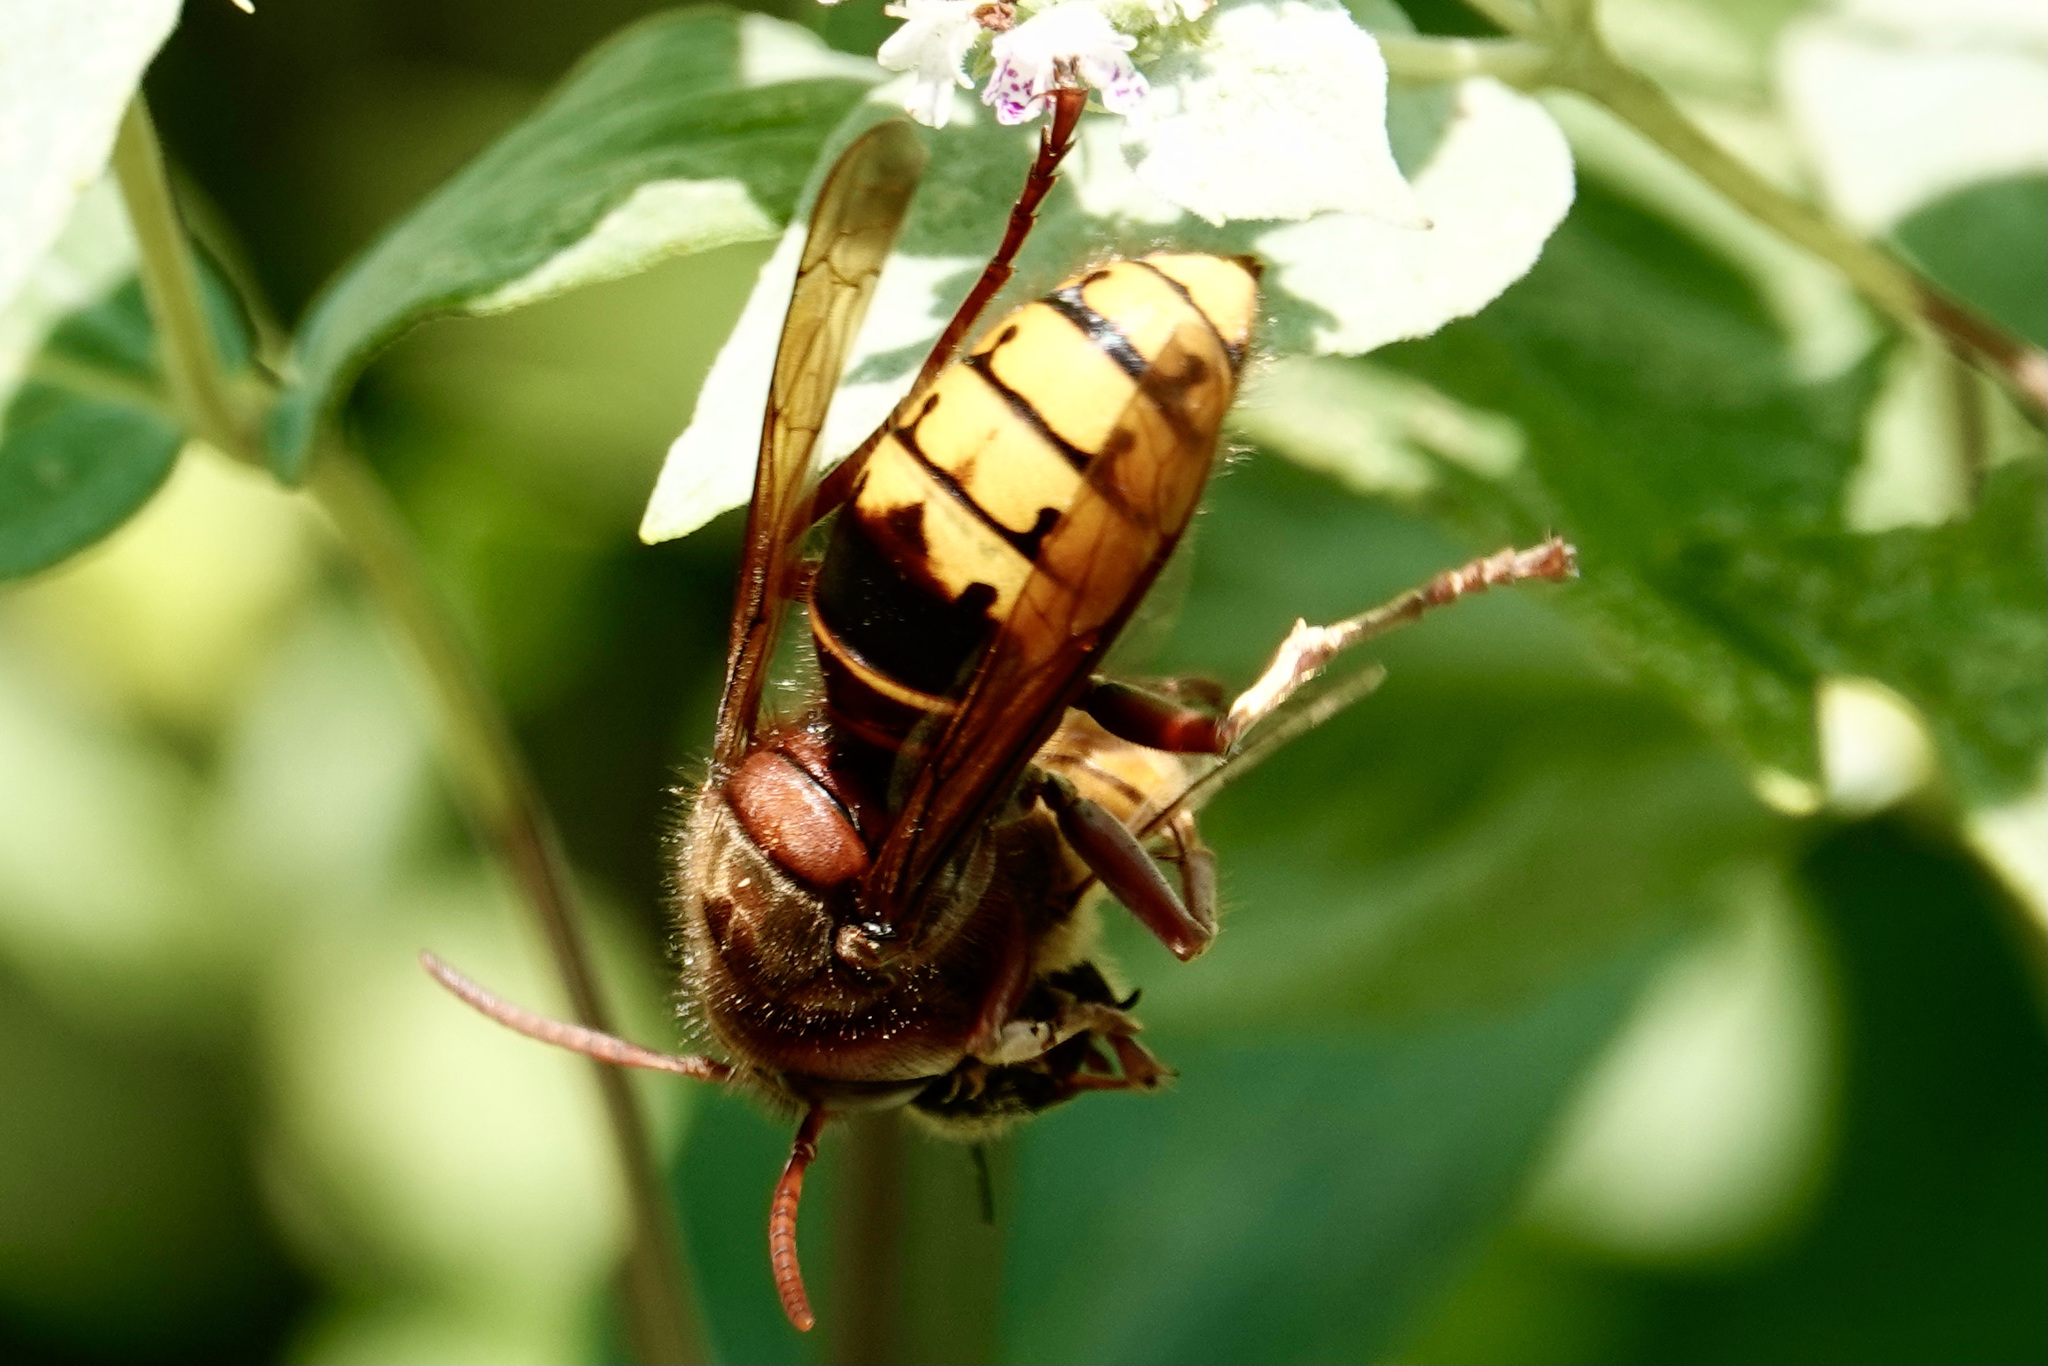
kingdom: Animalia
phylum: Arthropoda
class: Insecta
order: Hymenoptera
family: Vespidae
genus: Vespa
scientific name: Vespa crabro
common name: Hornet
